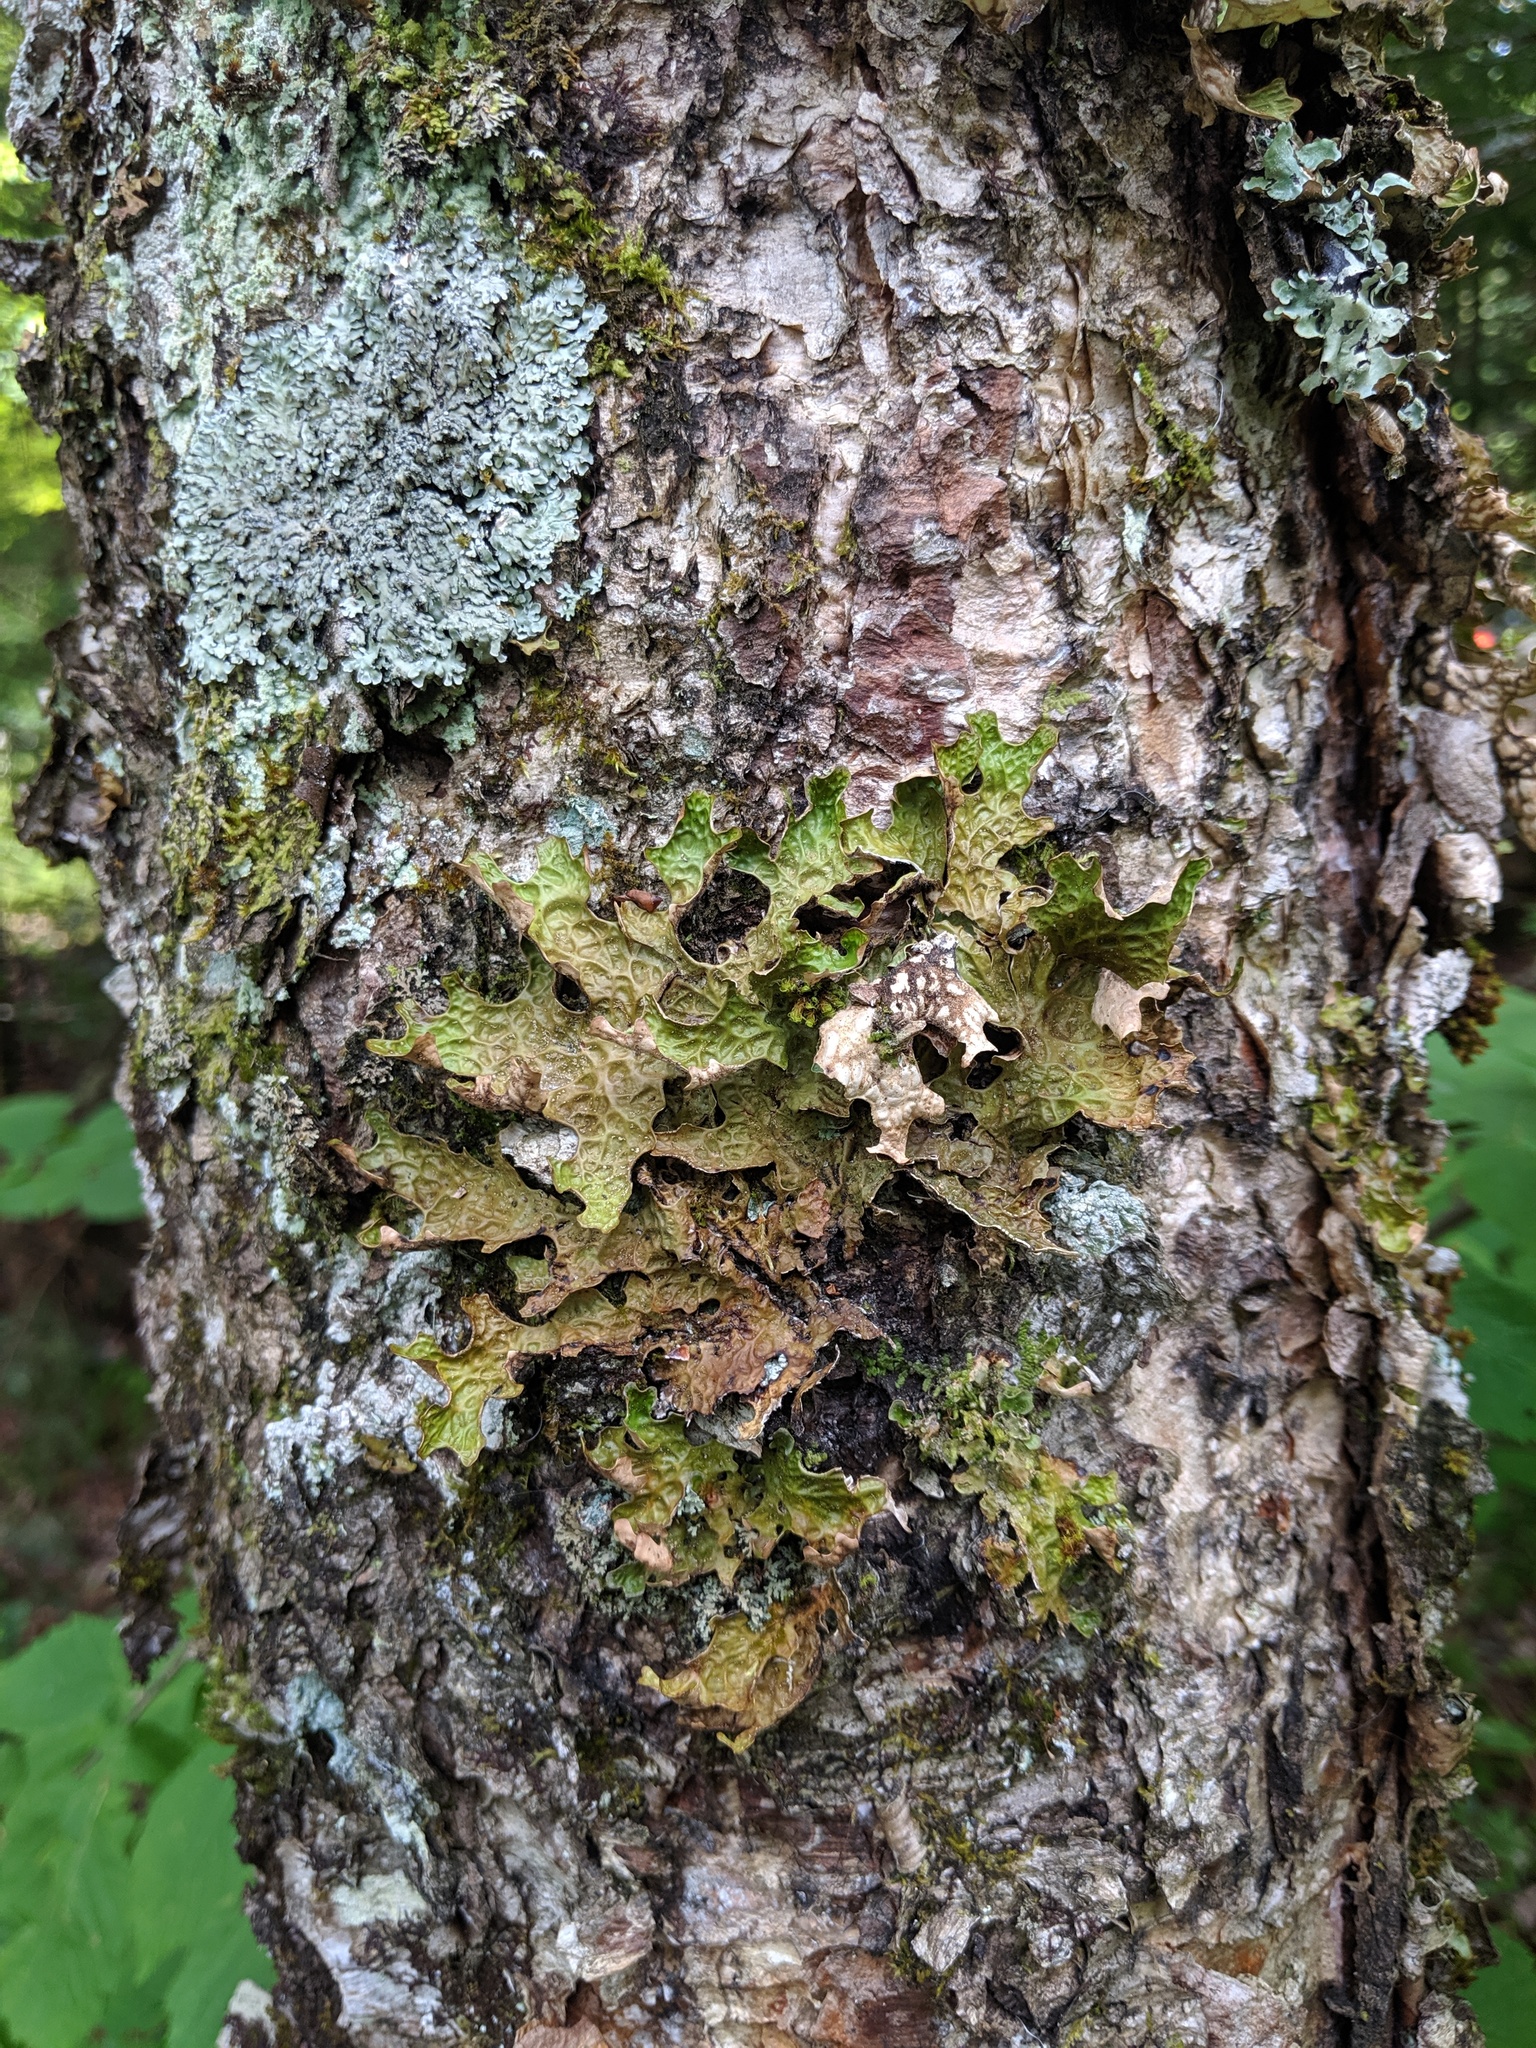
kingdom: Fungi
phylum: Ascomycota
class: Lecanoromycetes
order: Peltigerales
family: Lobariaceae
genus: Lobaria
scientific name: Lobaria pulmonaria
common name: Lungwort
